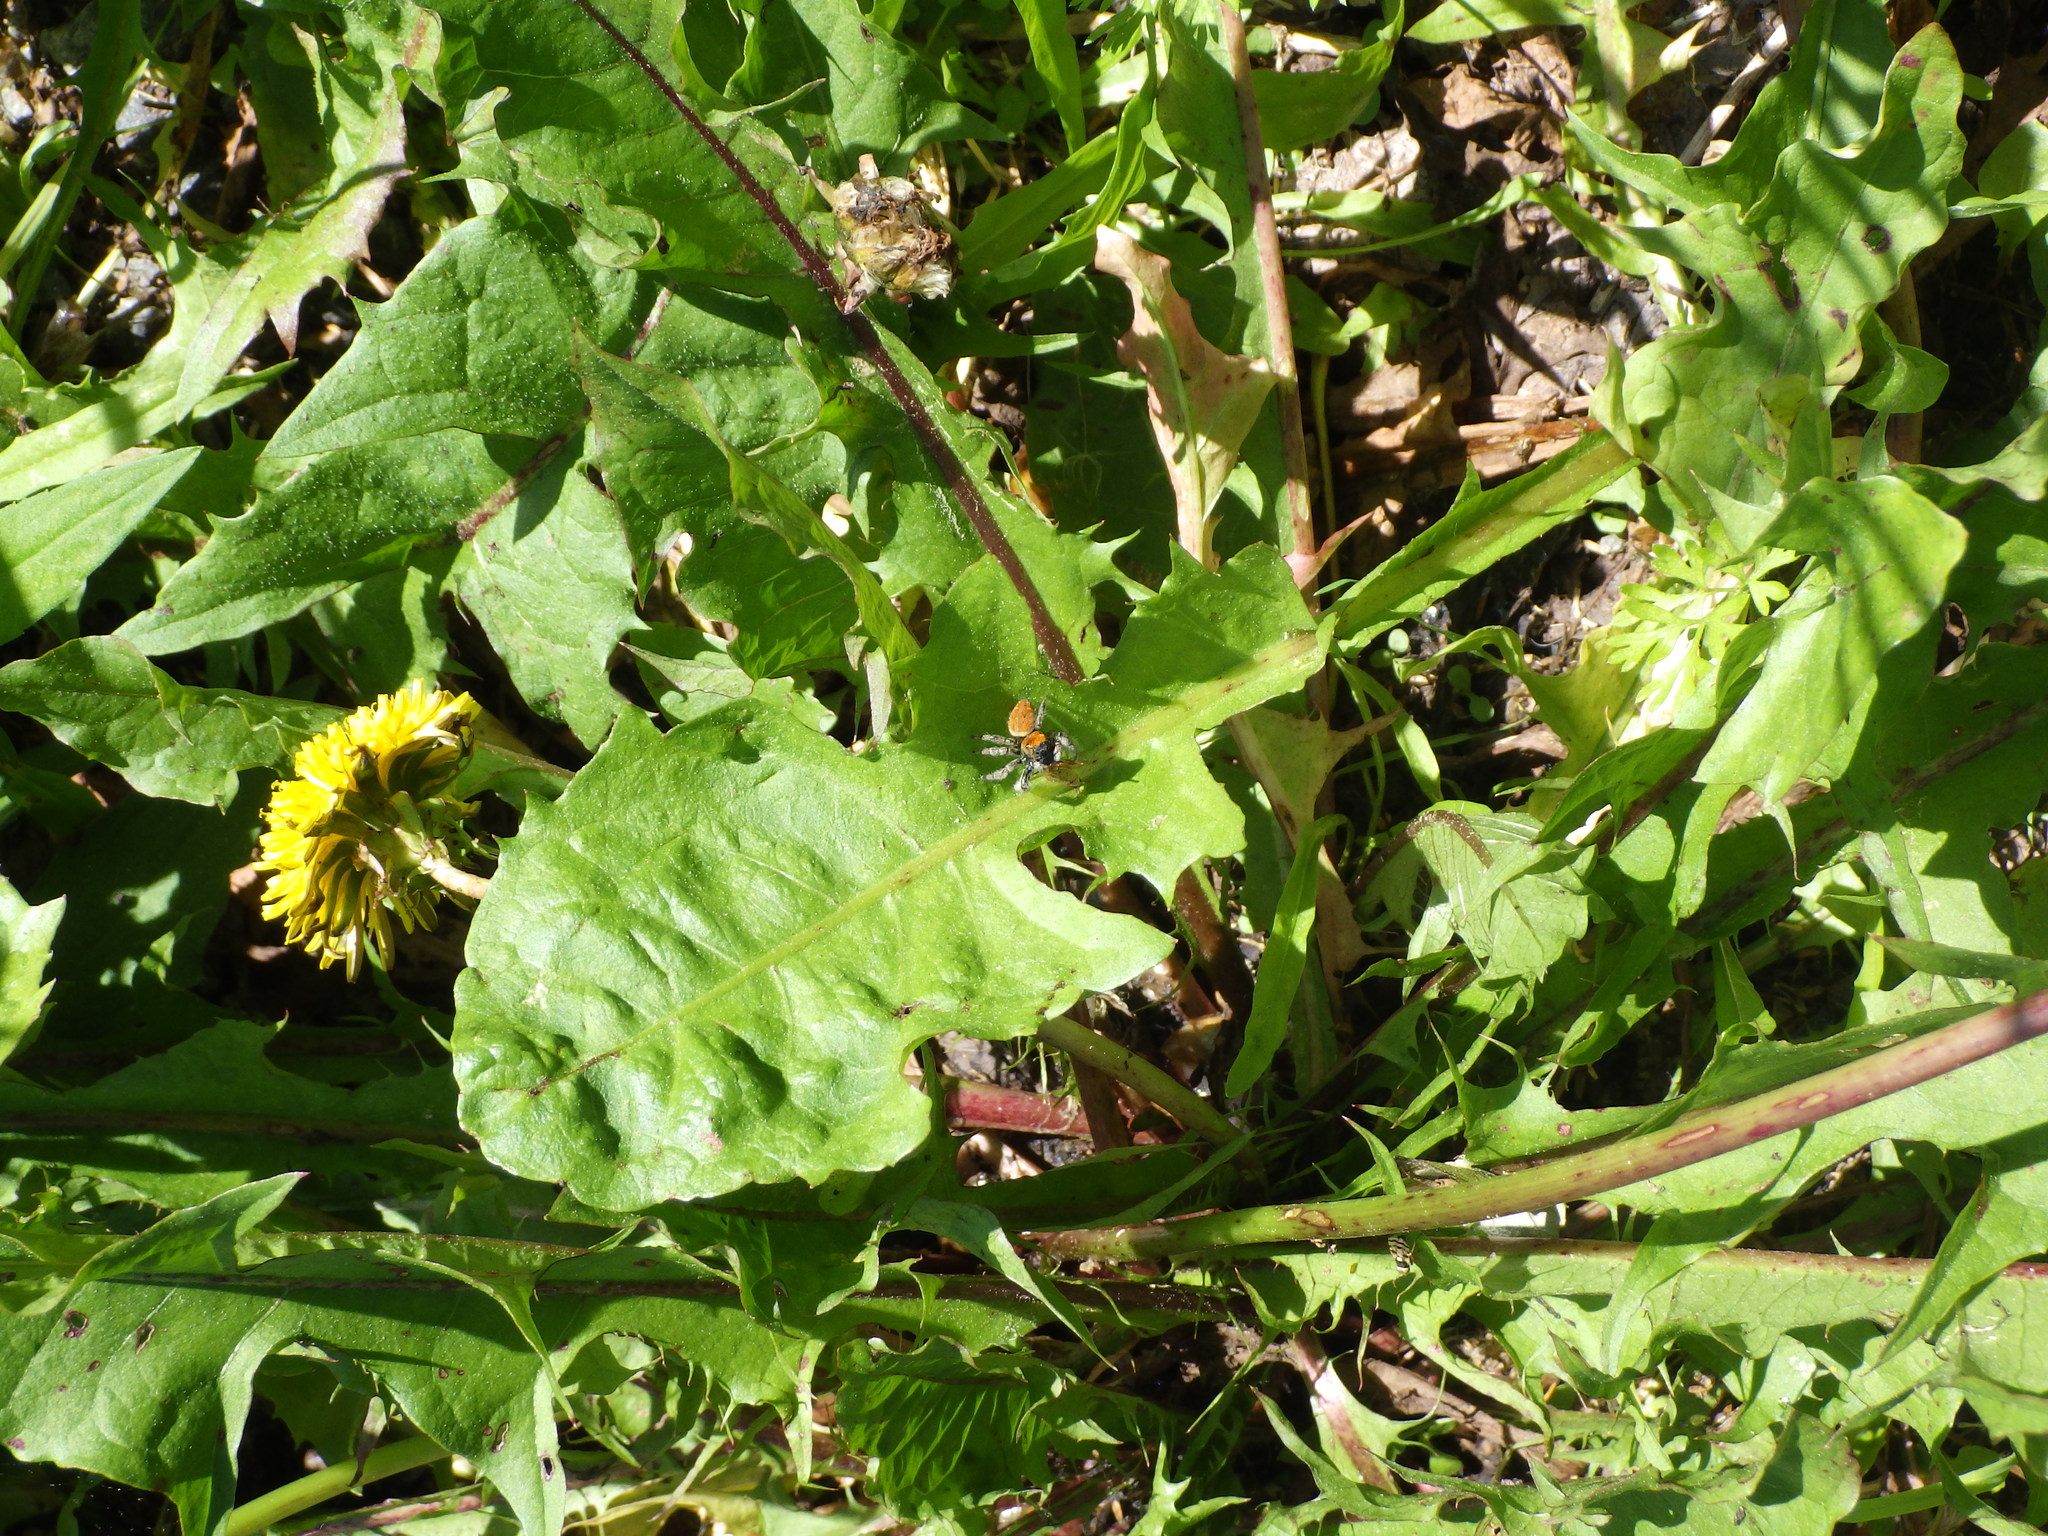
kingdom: Animalia
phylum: Arthropoda
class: Insecta
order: Hemiptera
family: Nabidae
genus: Nabis
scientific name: Nabis roseipennis
